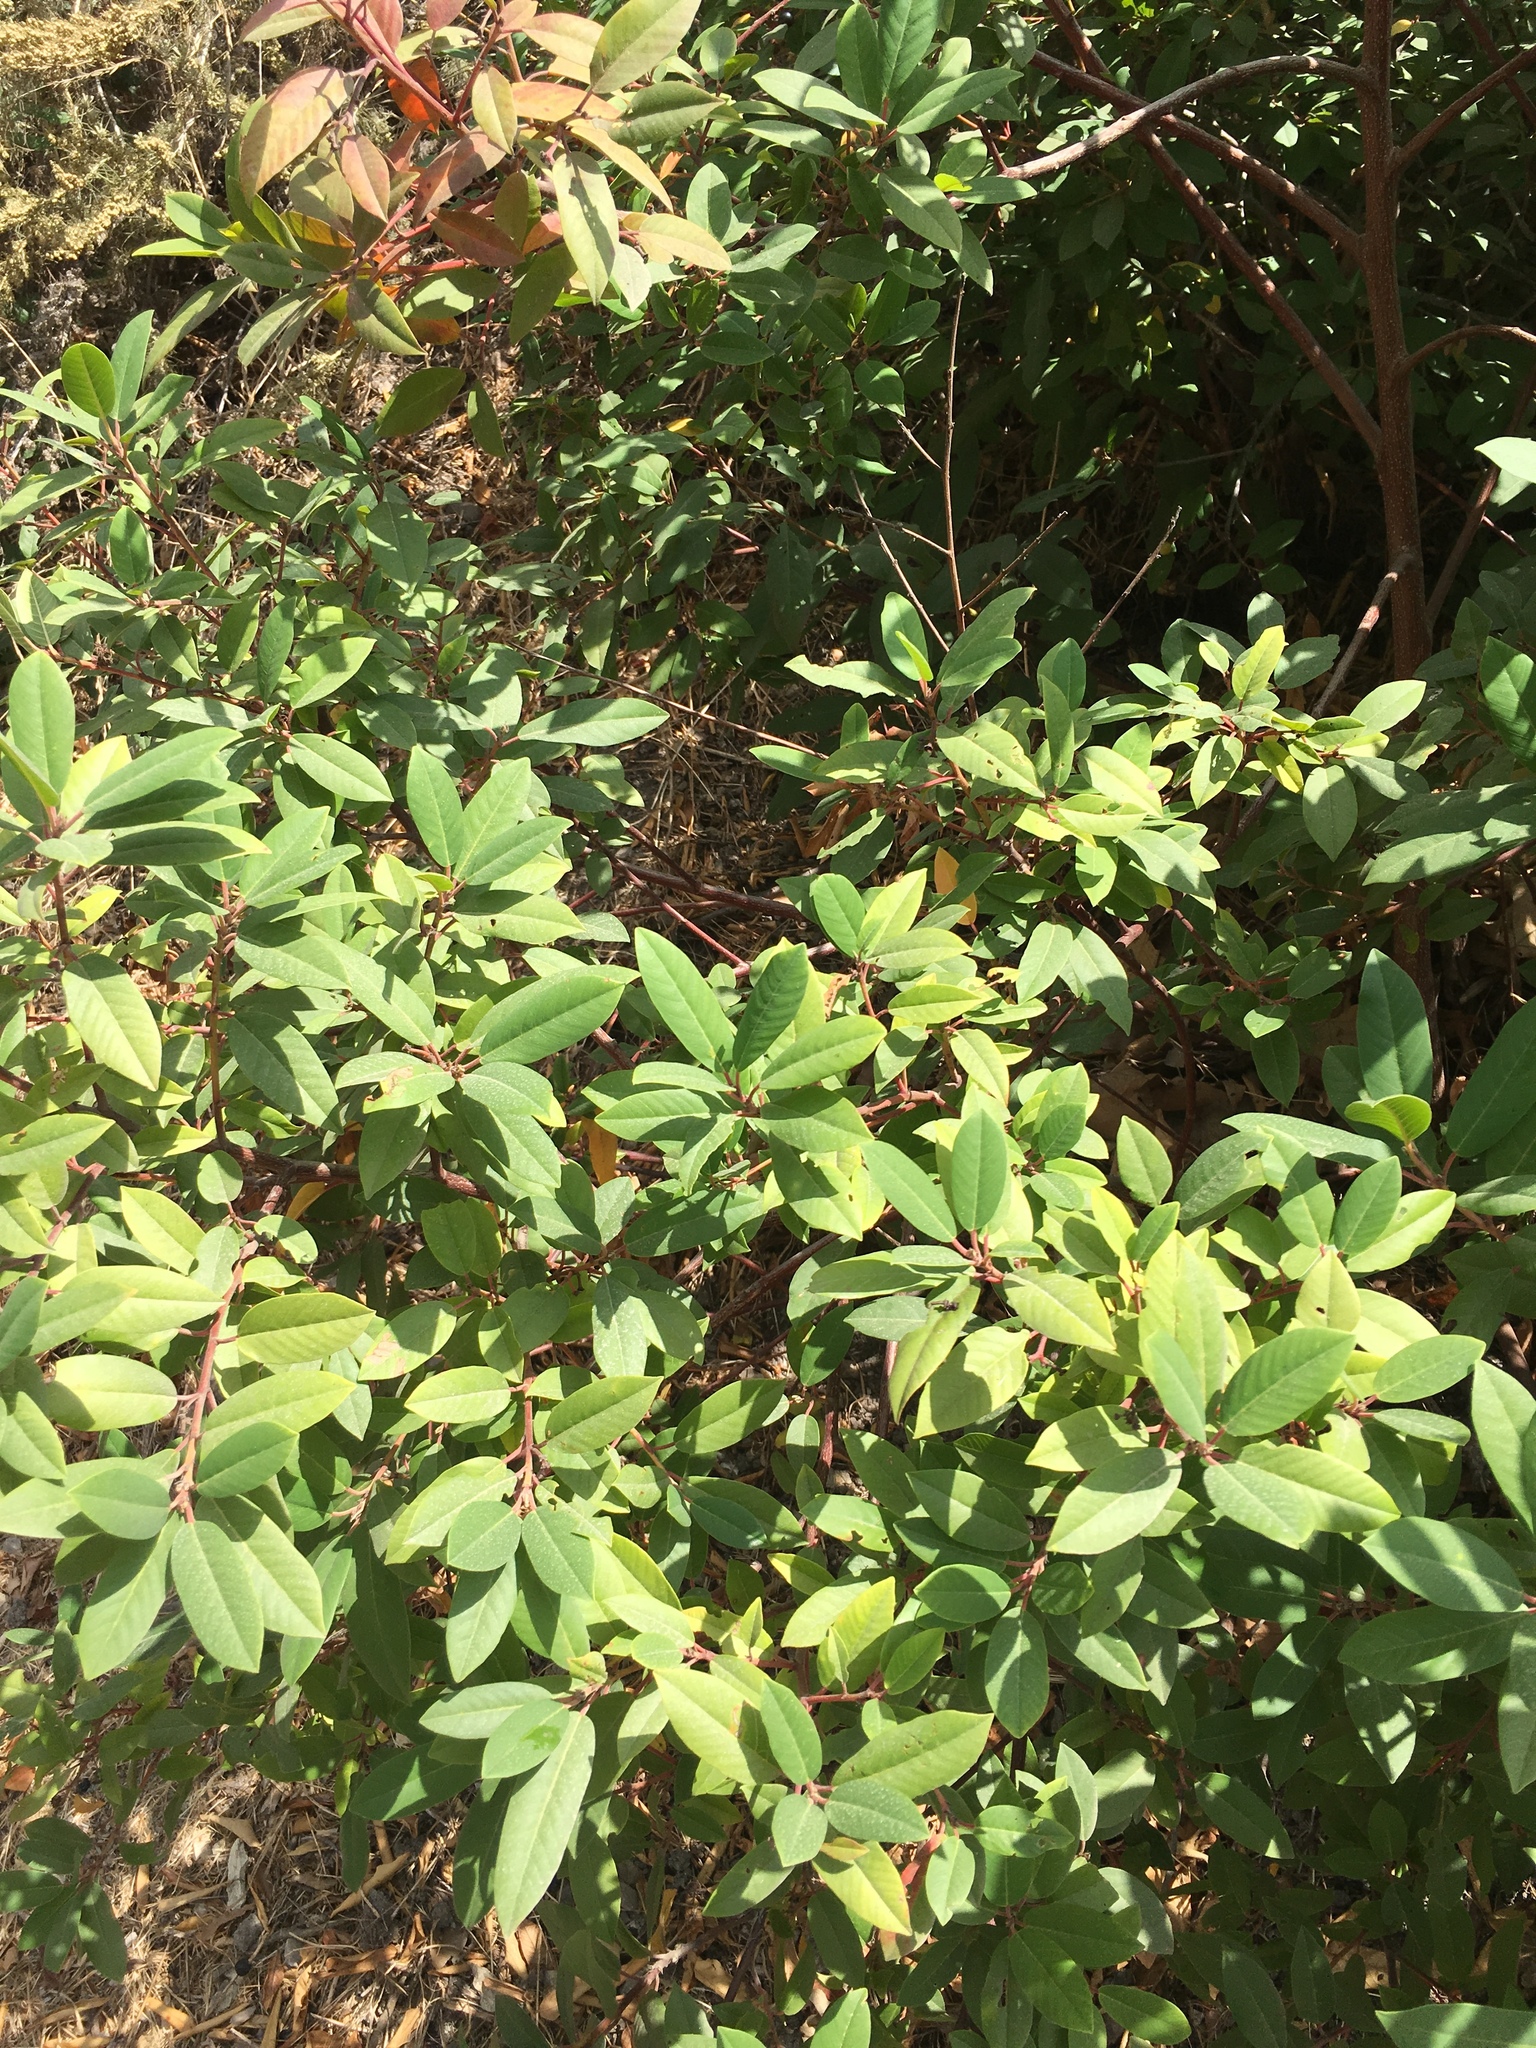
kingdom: Plantae
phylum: Tracheophyta
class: Magnoliopsida
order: Rosales
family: Rhamnaceae
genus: Frangula
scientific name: Frangula californica
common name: California buckthorn
